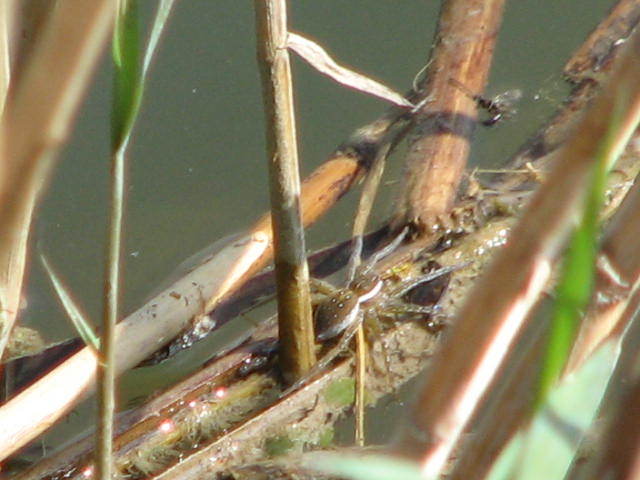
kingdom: Animalia
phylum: Arthropoda
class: Arachnida
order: Araneae
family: Pisauridae
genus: Dolomedes
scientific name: Dolomedes triton
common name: Six-spotted fishing spider
